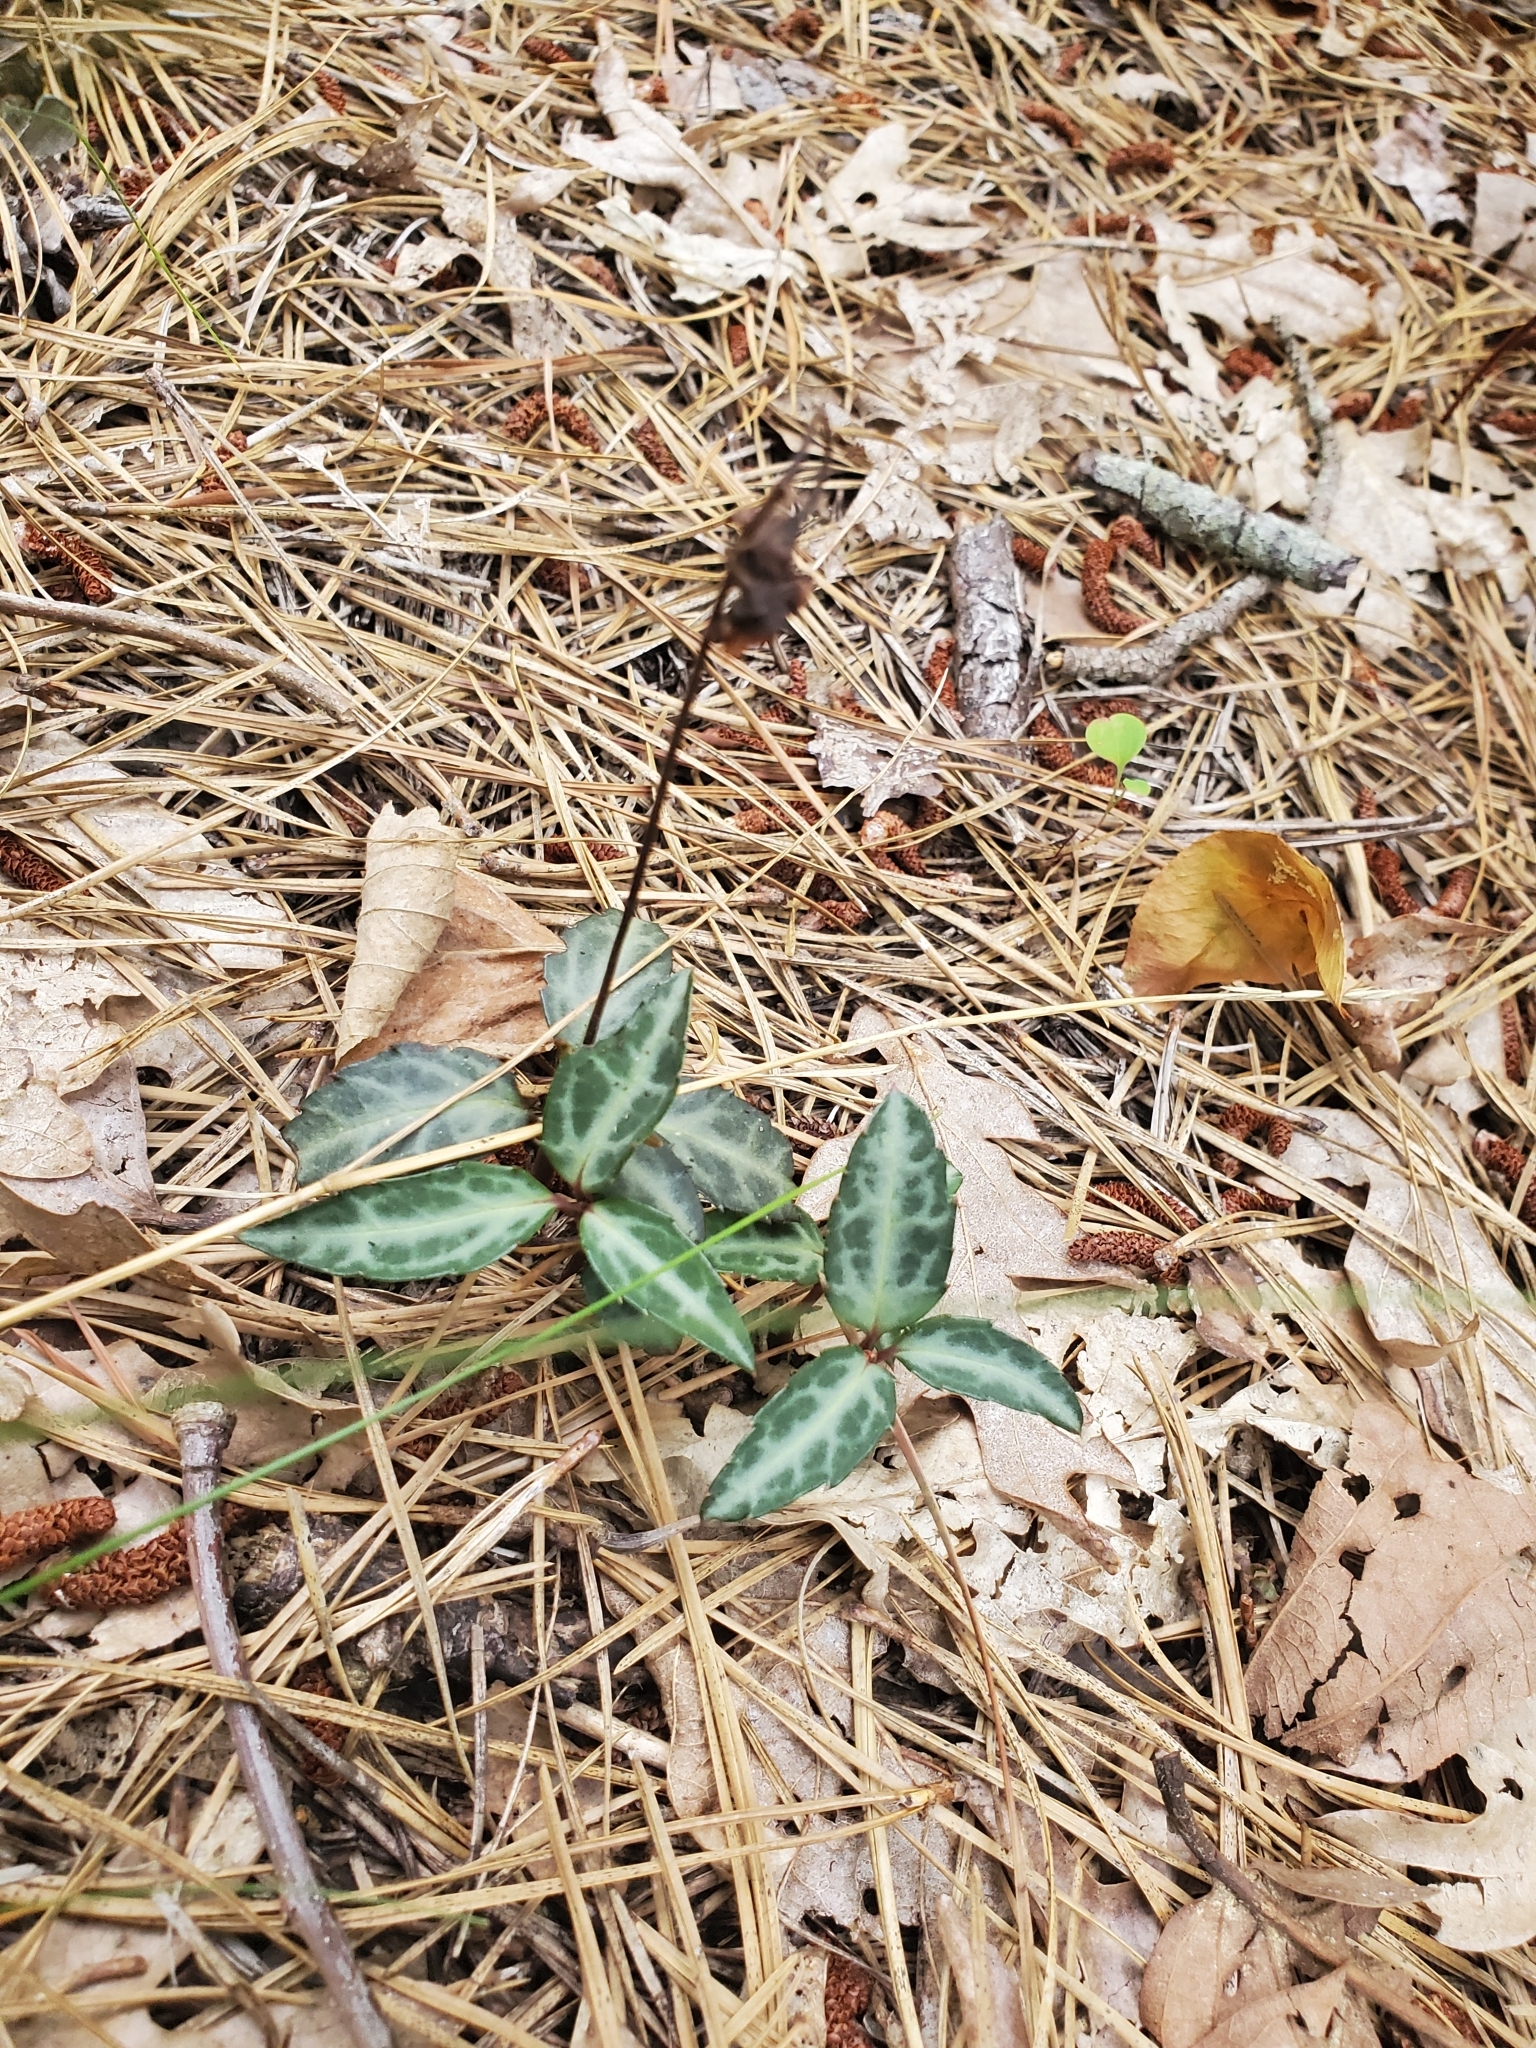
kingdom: Plantae
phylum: Tracheophyta
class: Magnoliopsida
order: Ericales
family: Ericaceae
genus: Chimaphila
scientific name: Chimaphila maculata
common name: Spotted pipsissewa
